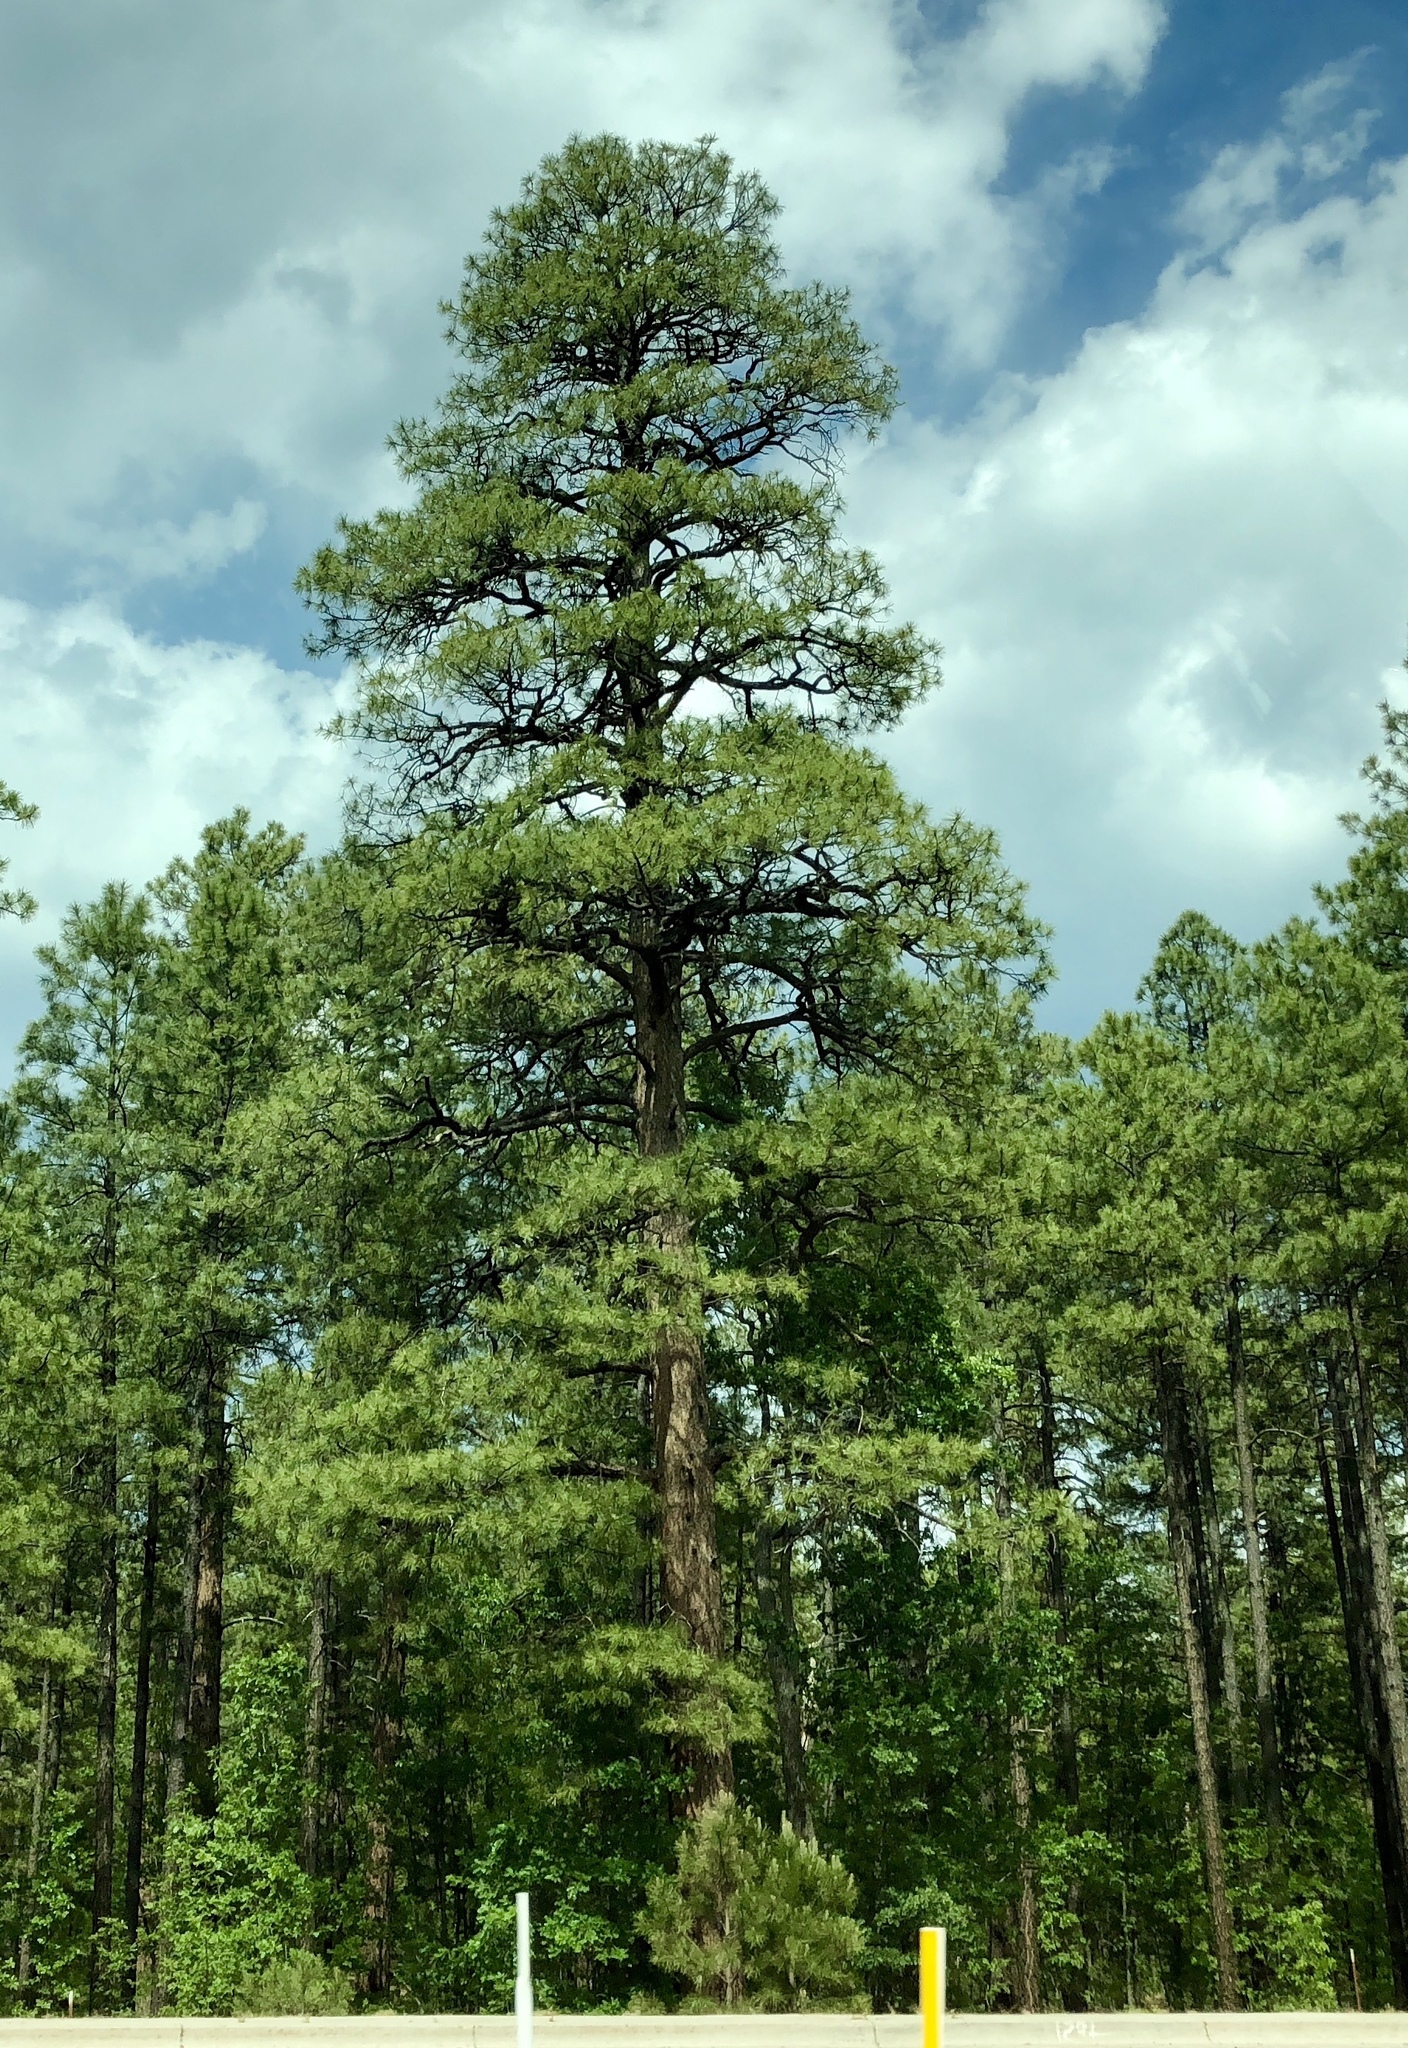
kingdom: Plantae
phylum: Tracheophyta
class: Pinopsida
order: Pinales
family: Pinaceae
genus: Pinus
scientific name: Pinus ponderosa
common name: Western yellow-pine
